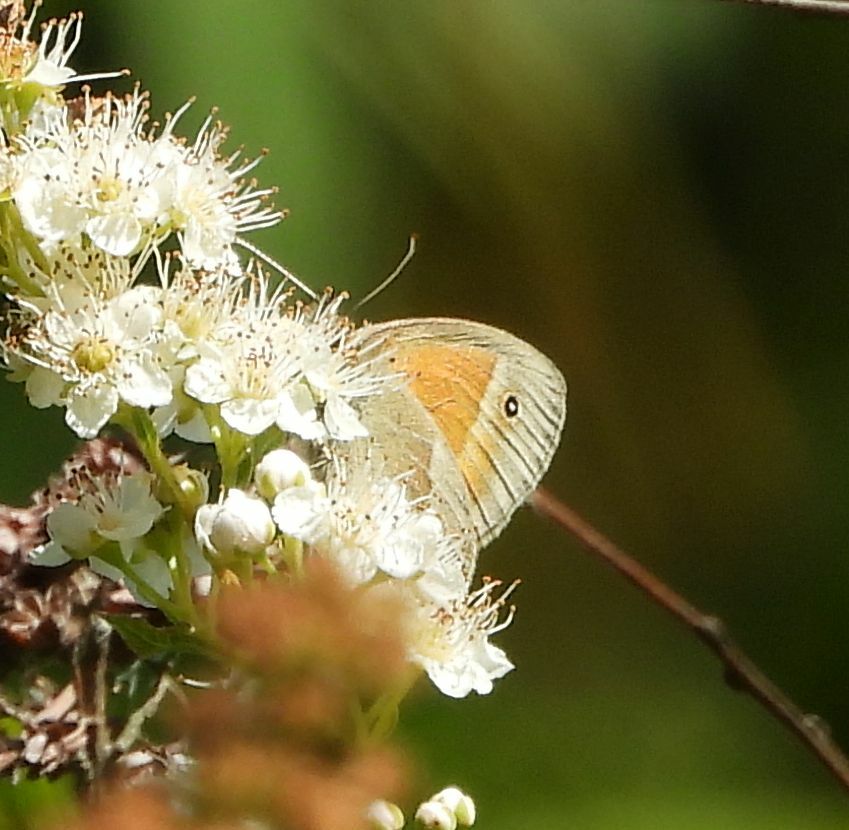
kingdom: Animalia
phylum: Arthropoda
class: Insecta
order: Lepidoptera
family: Nymphalidae
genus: Coenonympha
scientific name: Coenonympha california
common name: Common ringlet
